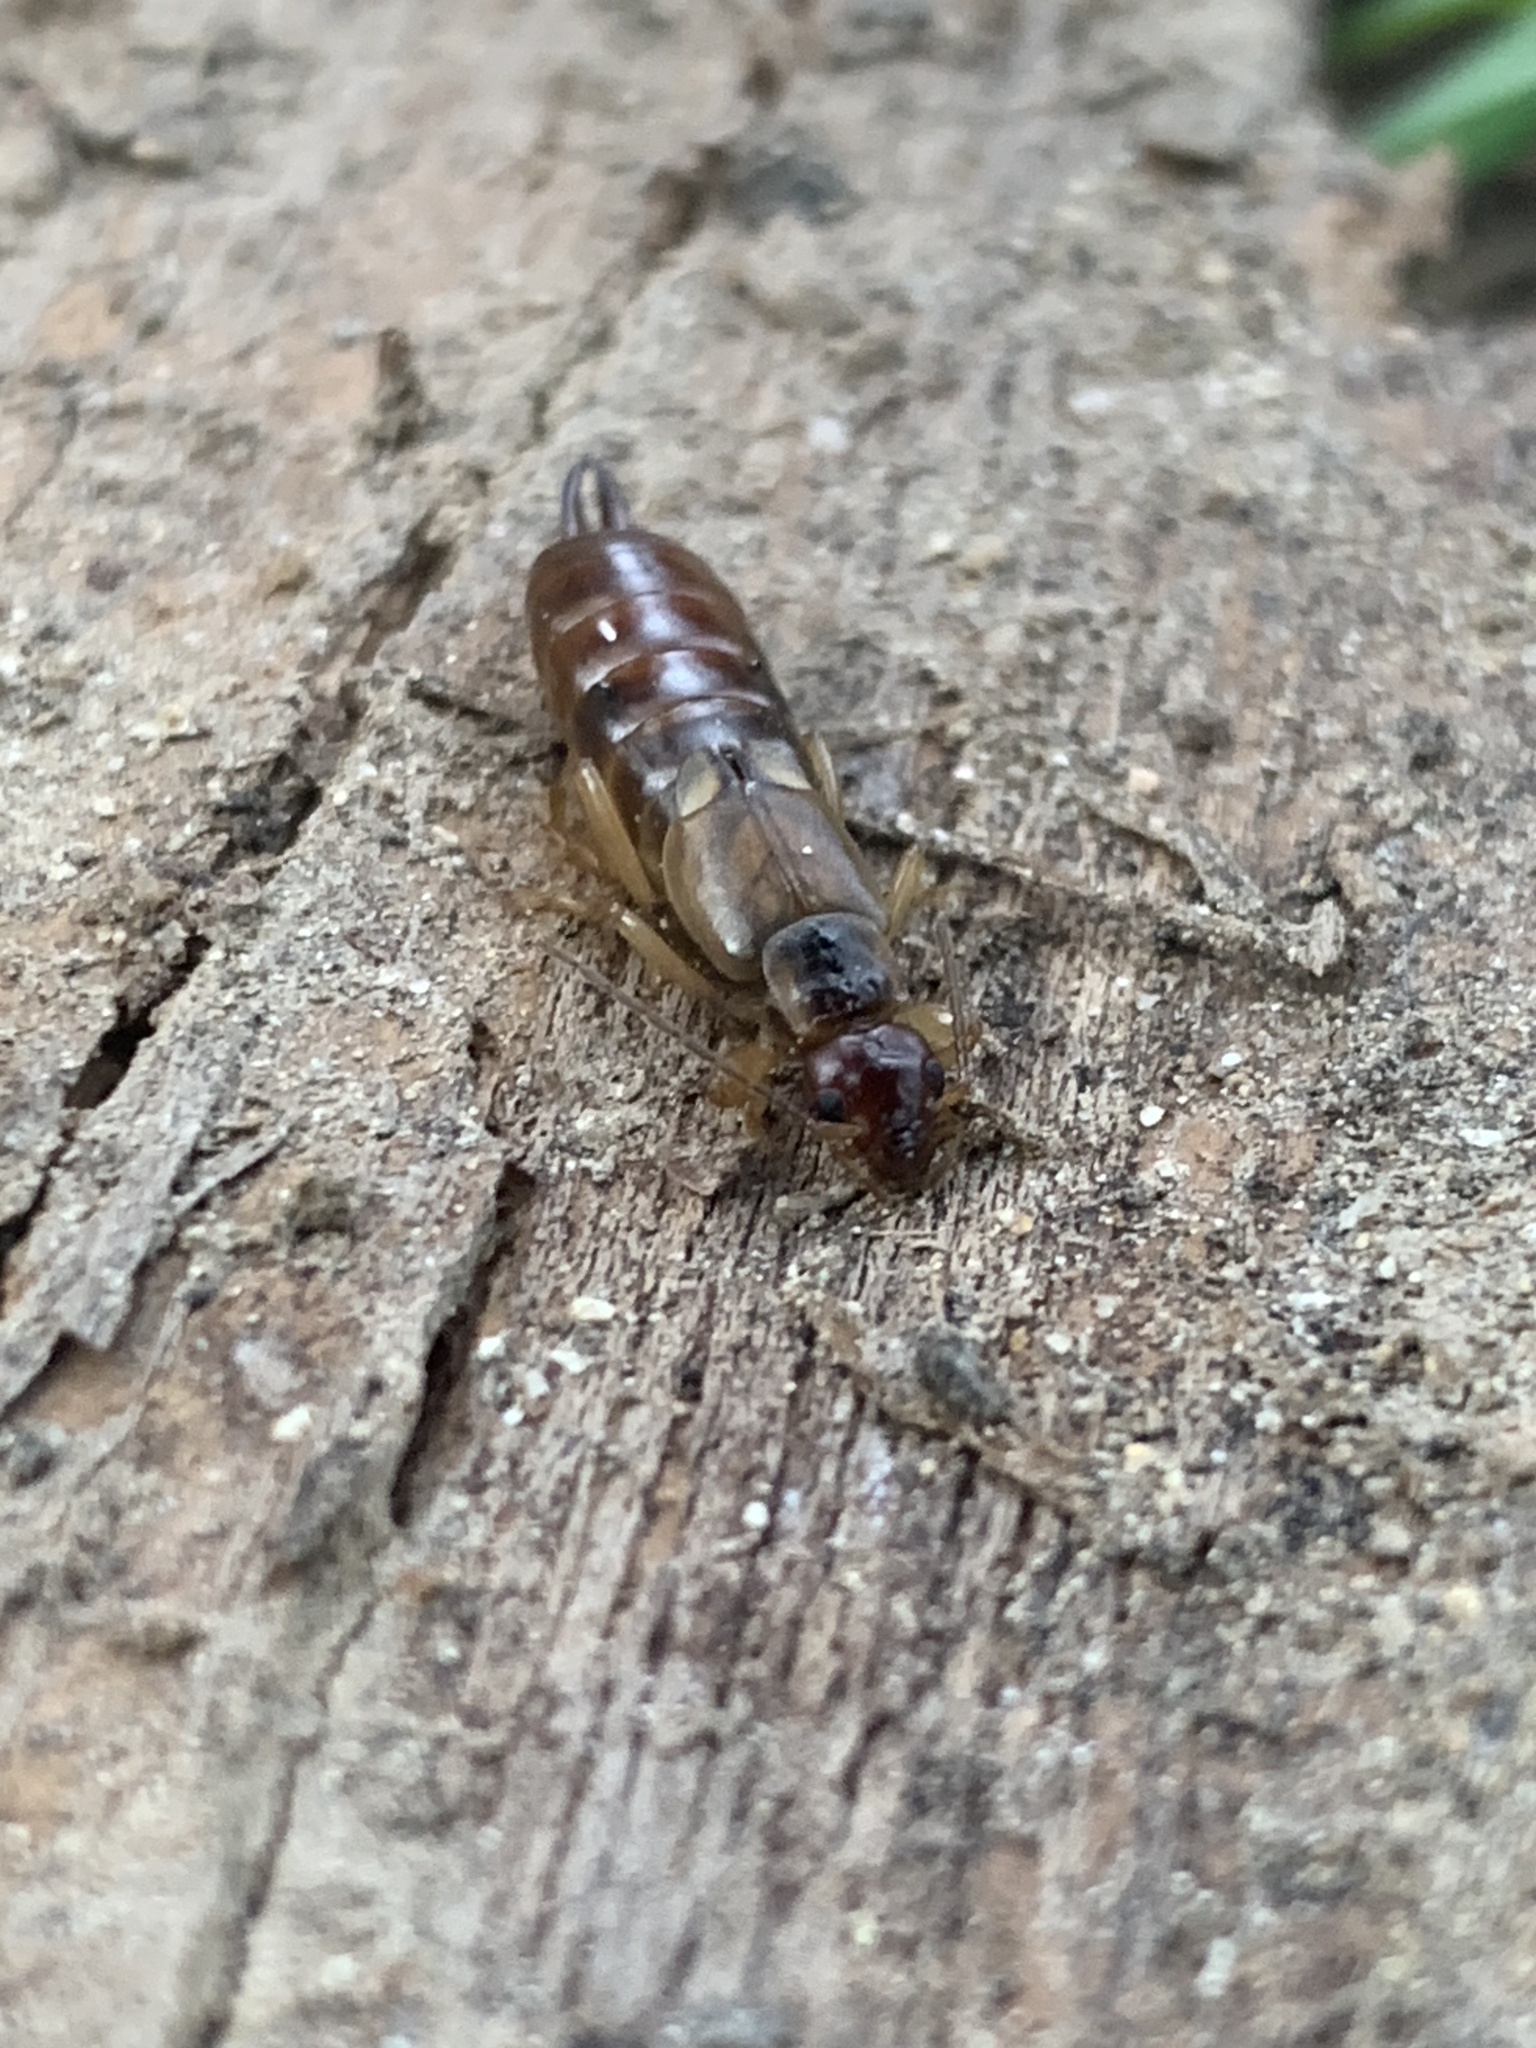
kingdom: Animalia
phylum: Arthropoda
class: Insecta
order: Dermaptera
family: Forficulidae
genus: Forficula
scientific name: Forficula dentata
